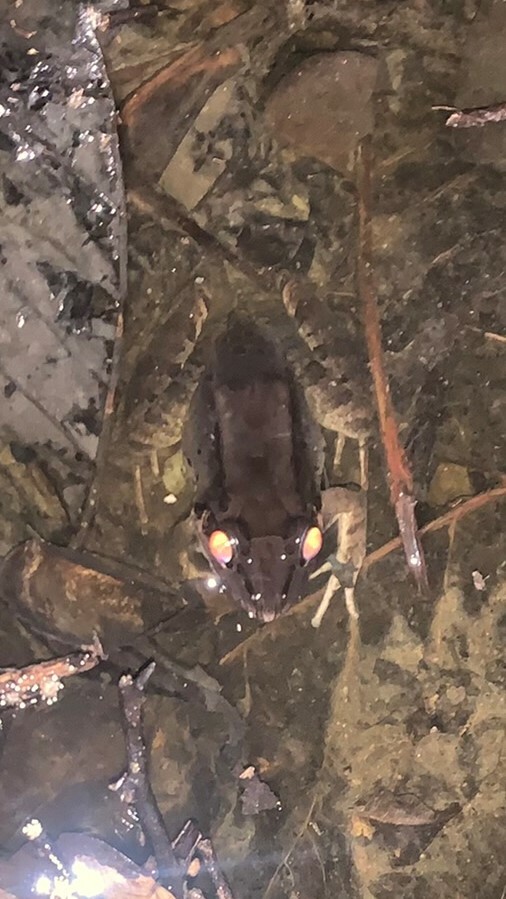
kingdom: Animalia
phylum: Chordata
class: Amphibia
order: Anura
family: Leptodactylidae
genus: Leptodactylus
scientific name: Leptodactylus savagei
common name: Savage's thin-toed frog
